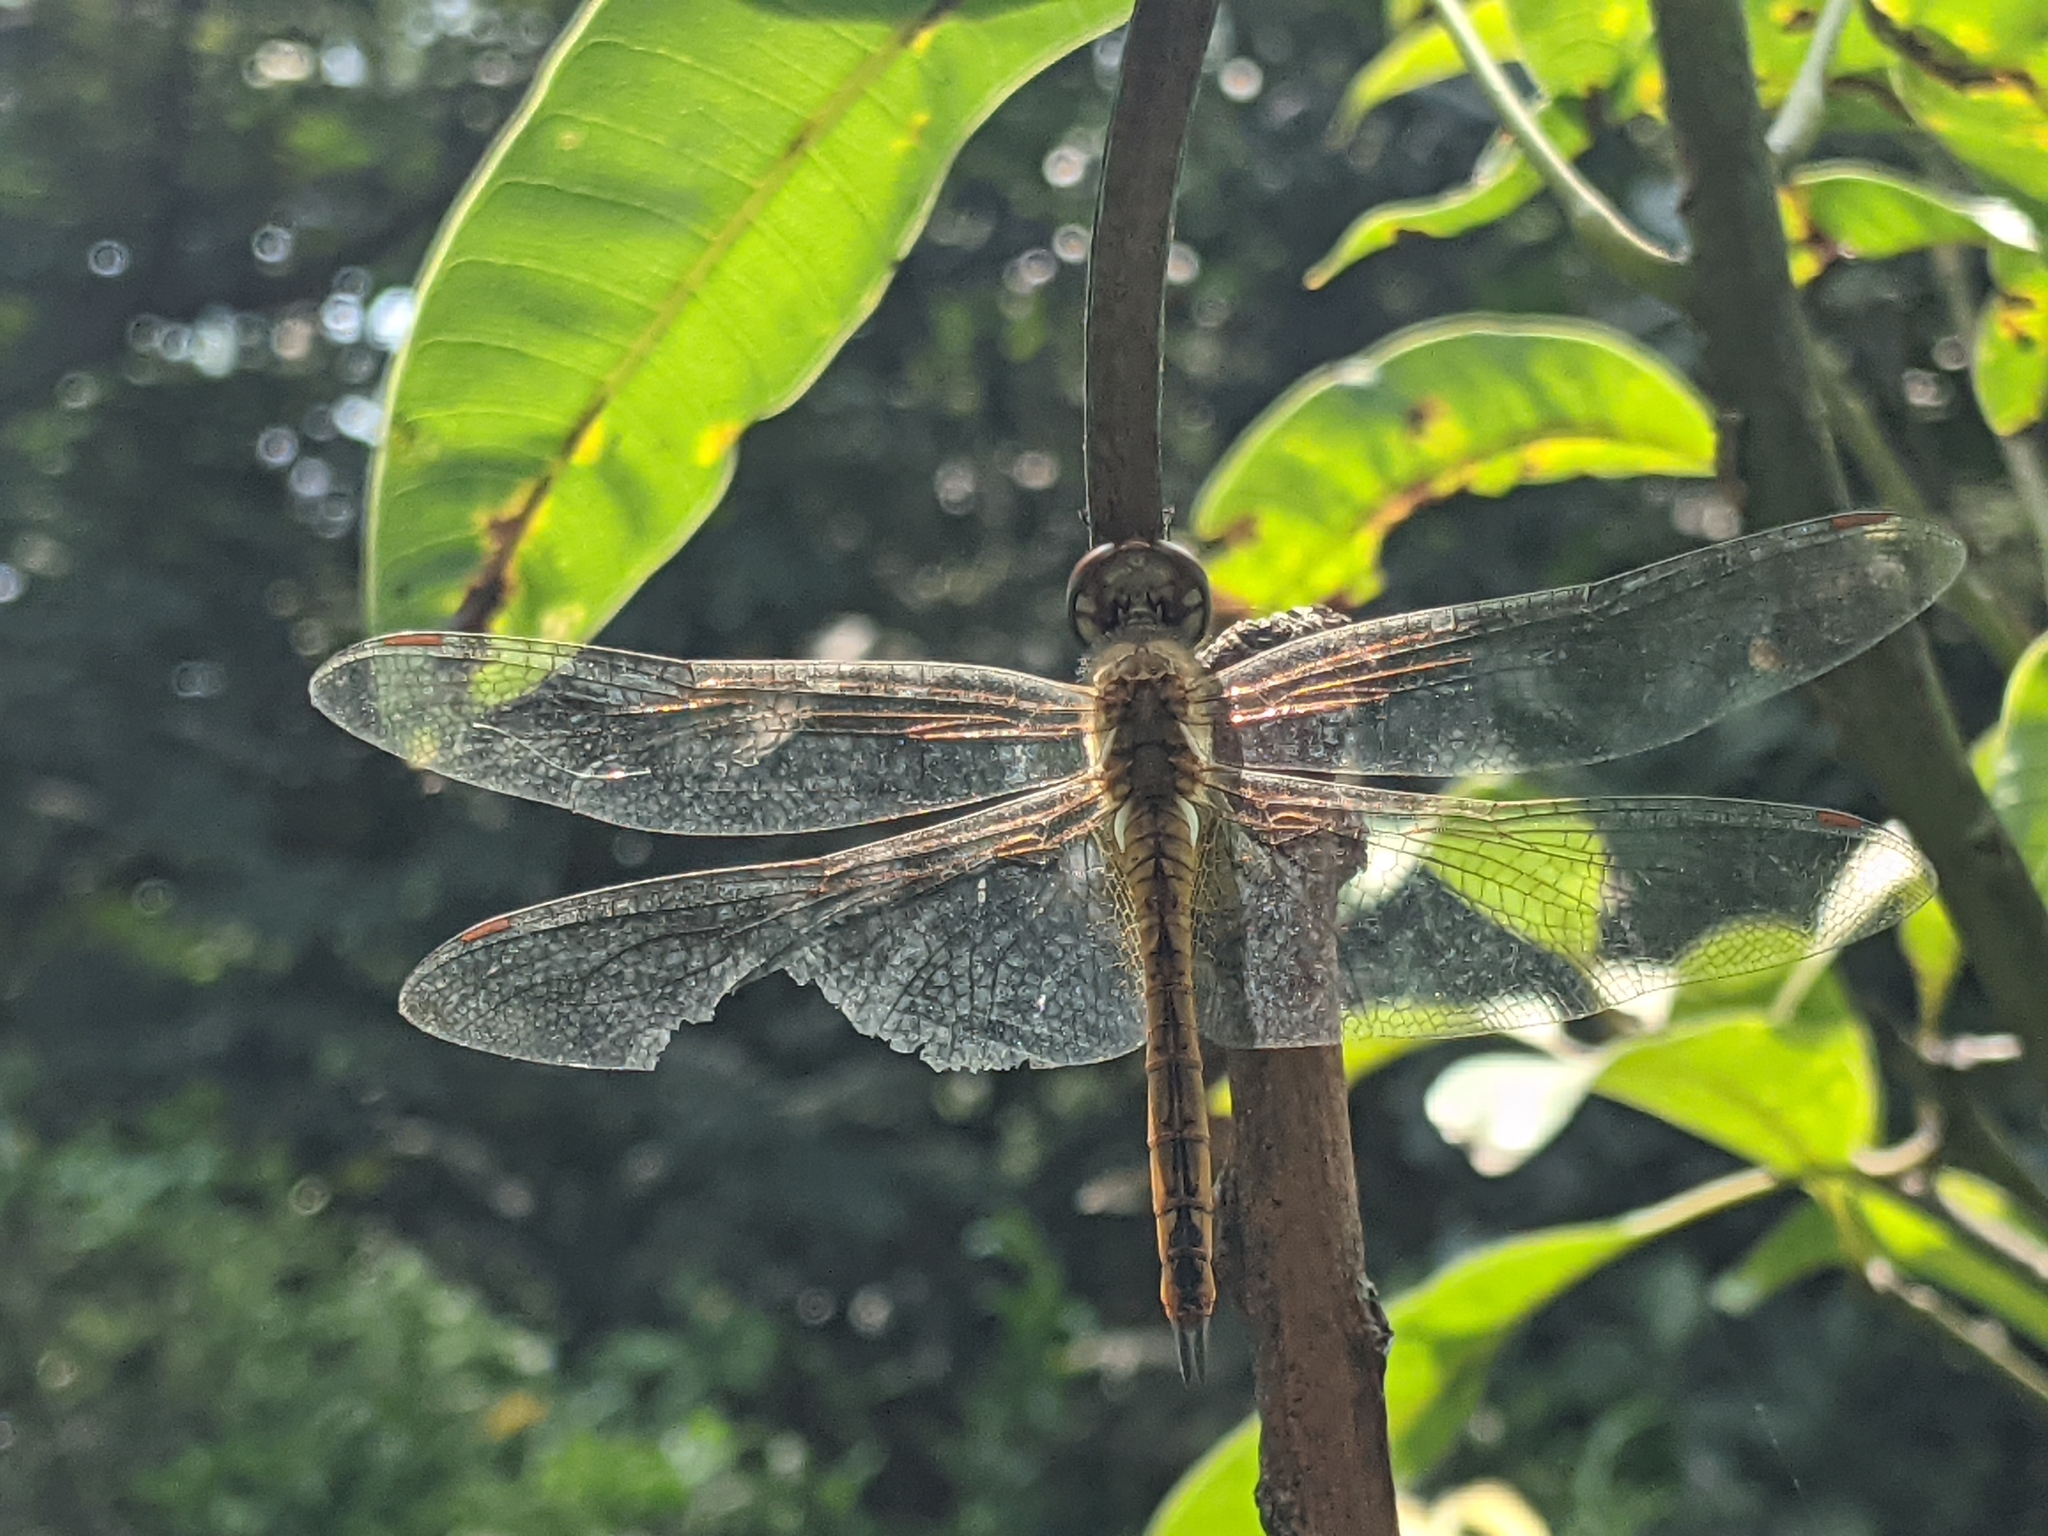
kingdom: Animalia
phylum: Arthropoda
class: Insecta
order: Odonata
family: Libellulidae
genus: Pantala
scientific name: Pantala flavescens
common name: Wandering glider
